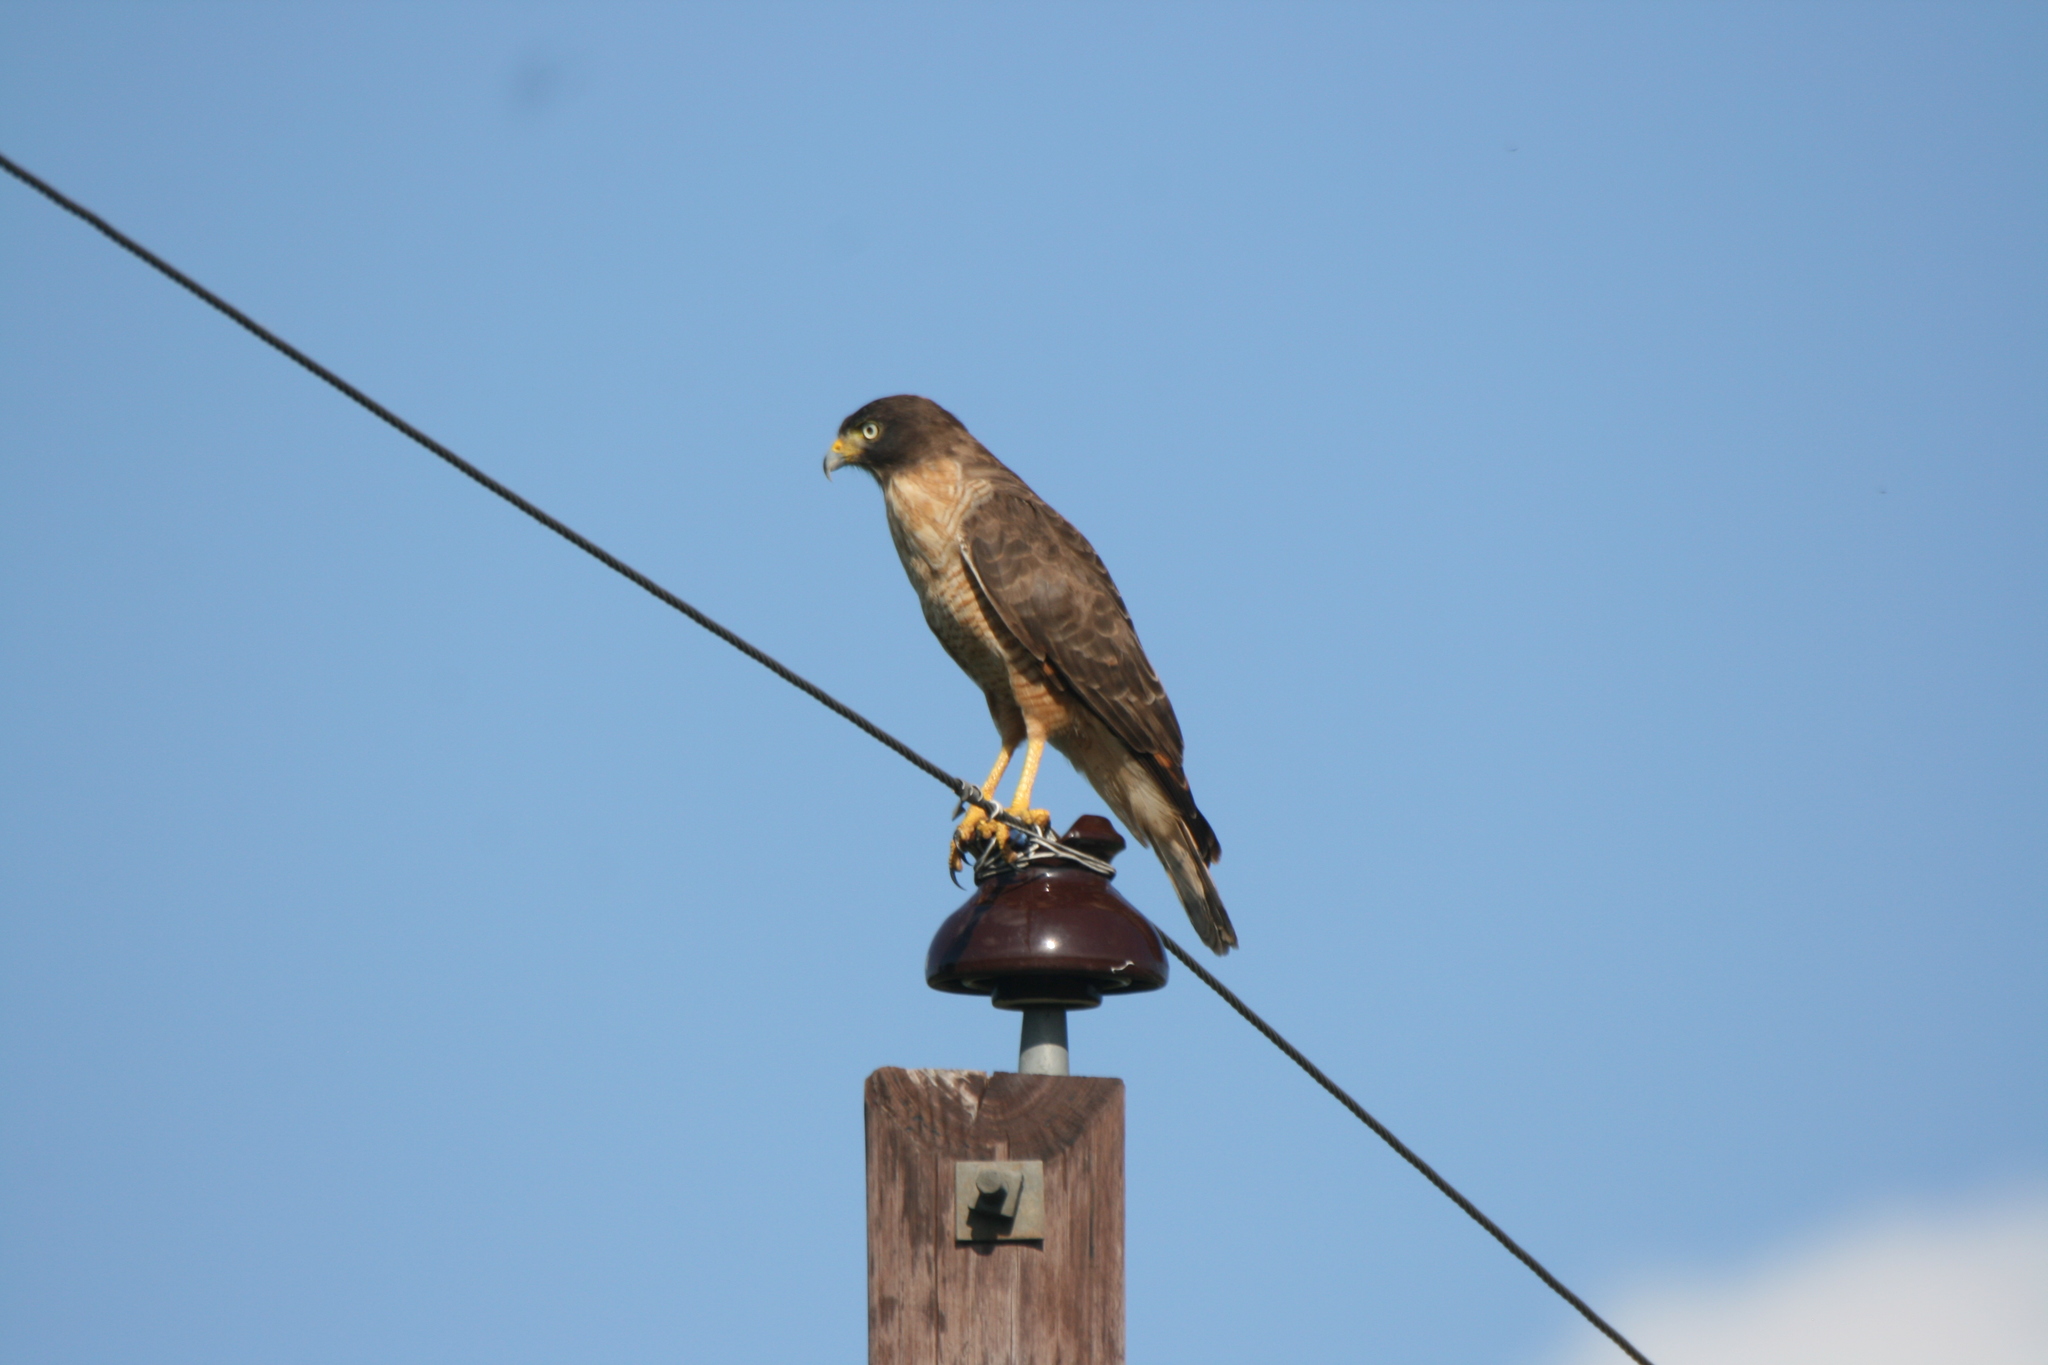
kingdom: Animalia
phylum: Chordata
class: Aves
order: Accipitriformes
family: Accipitridae
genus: Rupornis
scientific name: Rupornis magnirostris
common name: Roadside hawk
